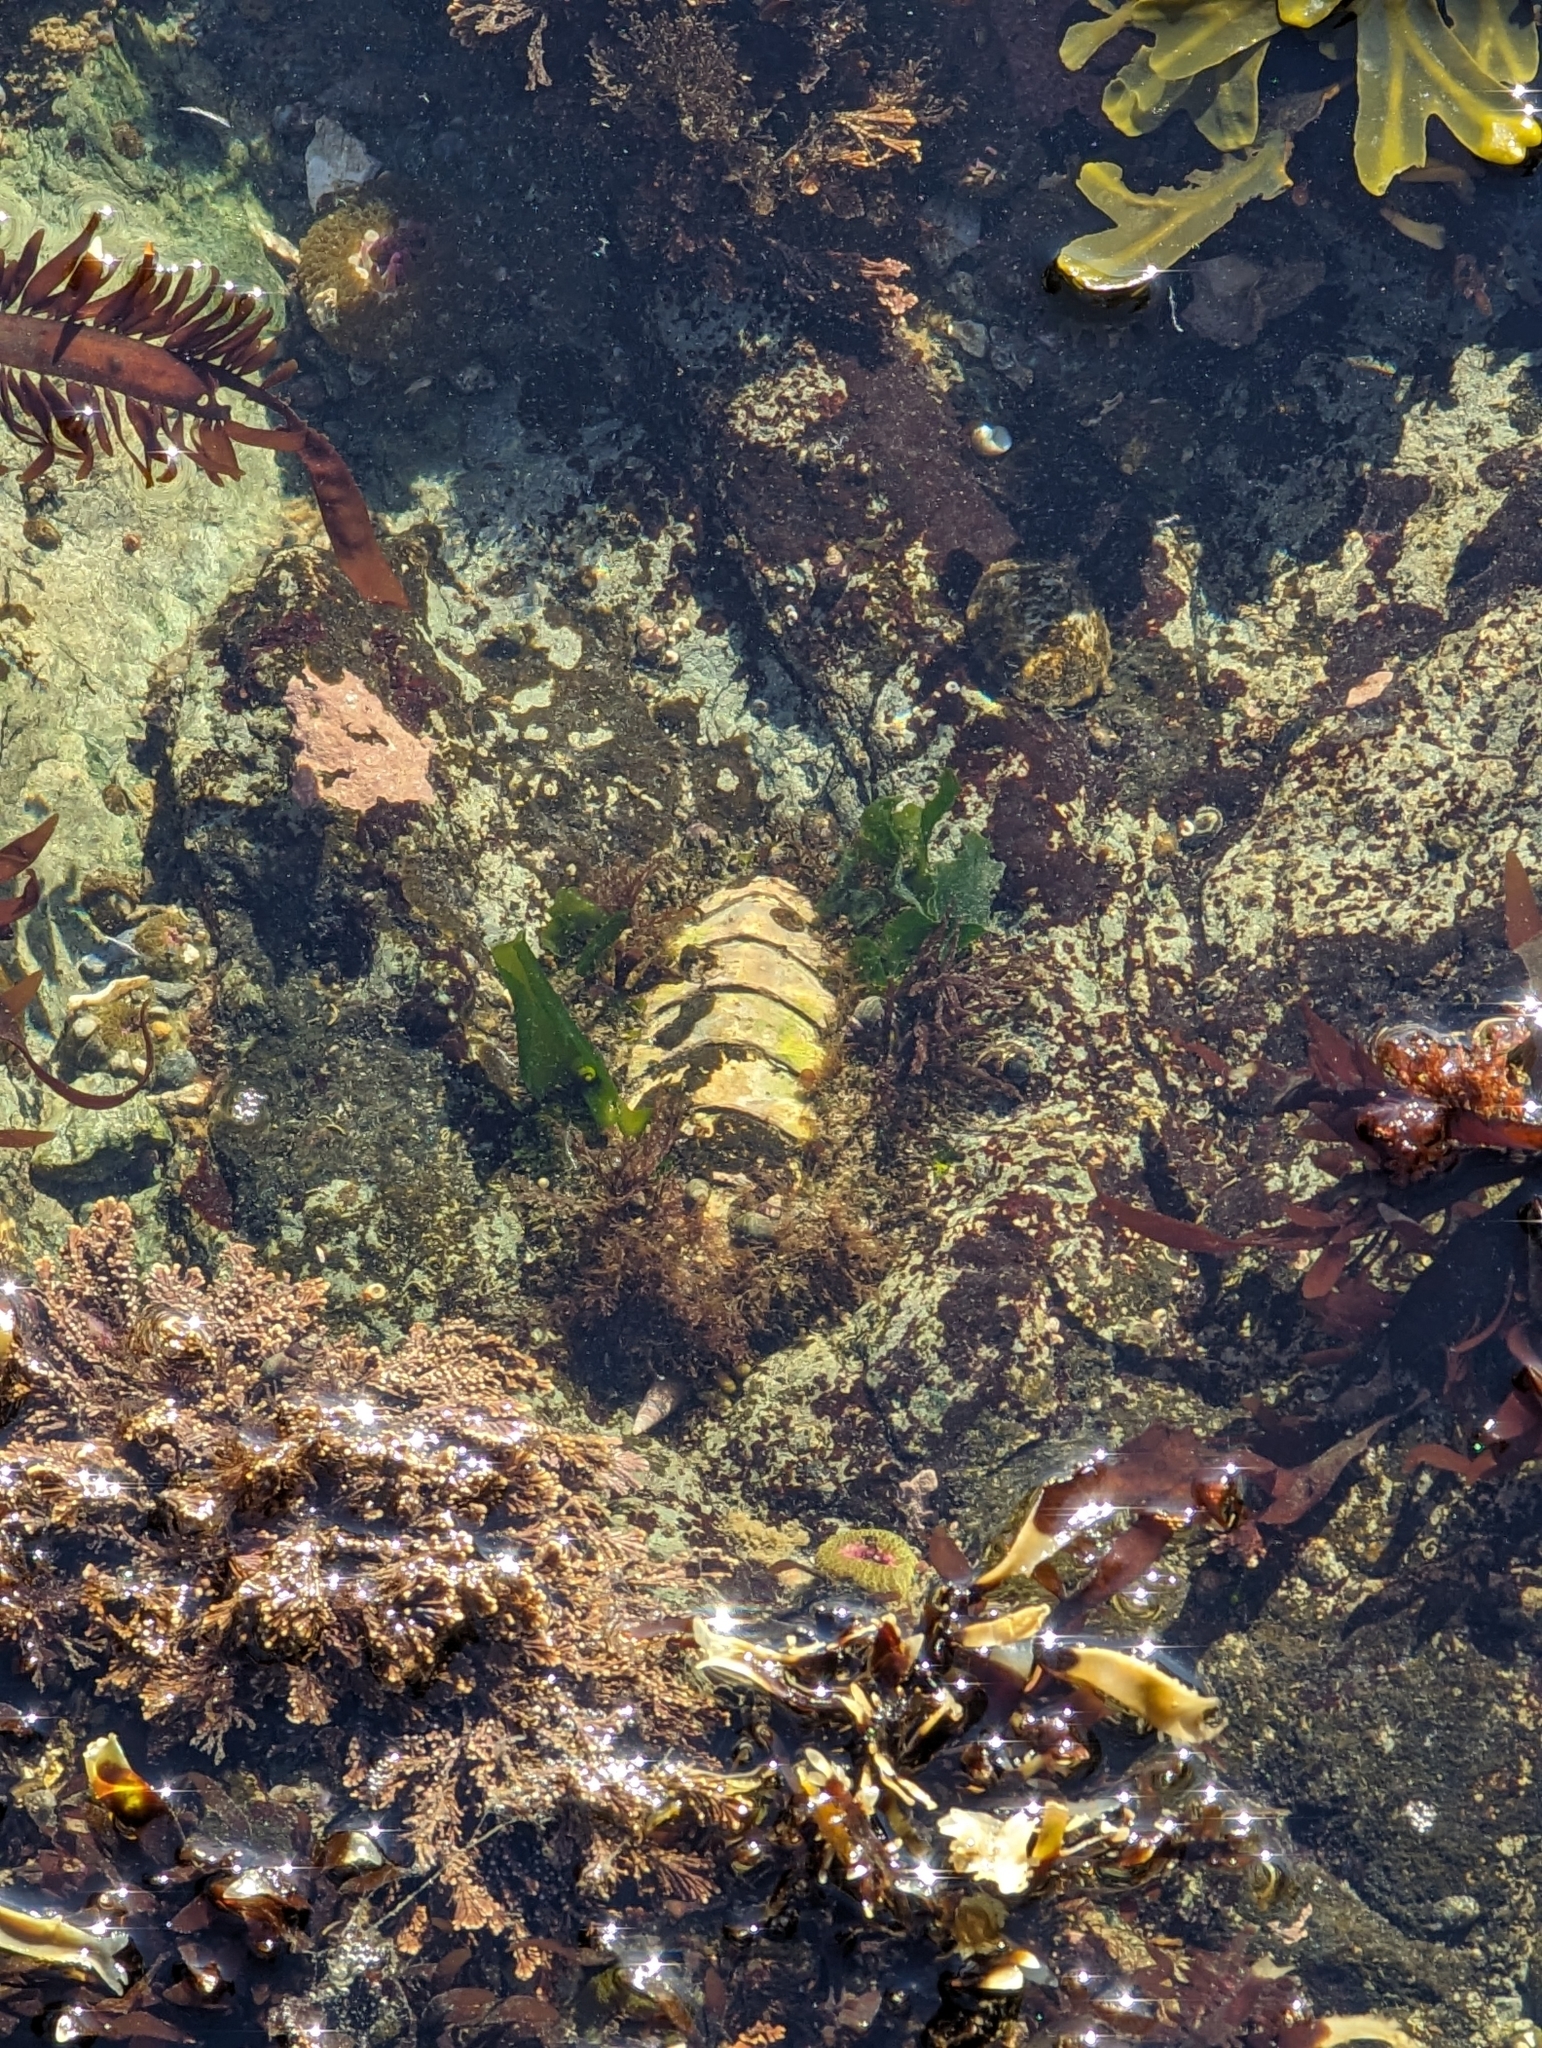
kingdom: Animalia
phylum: Mollusca
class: Polyplacophora
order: Chitonida
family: Mopaliidae
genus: Mopalia
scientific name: Mopalia muscosa
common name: Mossy chiton
